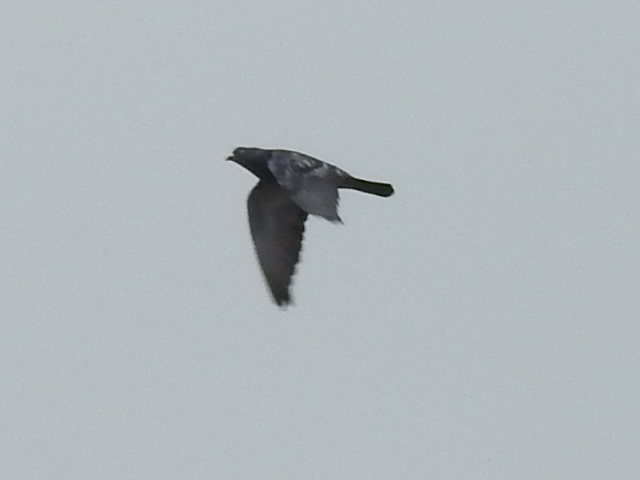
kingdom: Animalia
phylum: Chordata
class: Aves
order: Columbiformes
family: Columbidae
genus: Columba
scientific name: Columba livia
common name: Rock pigeon
